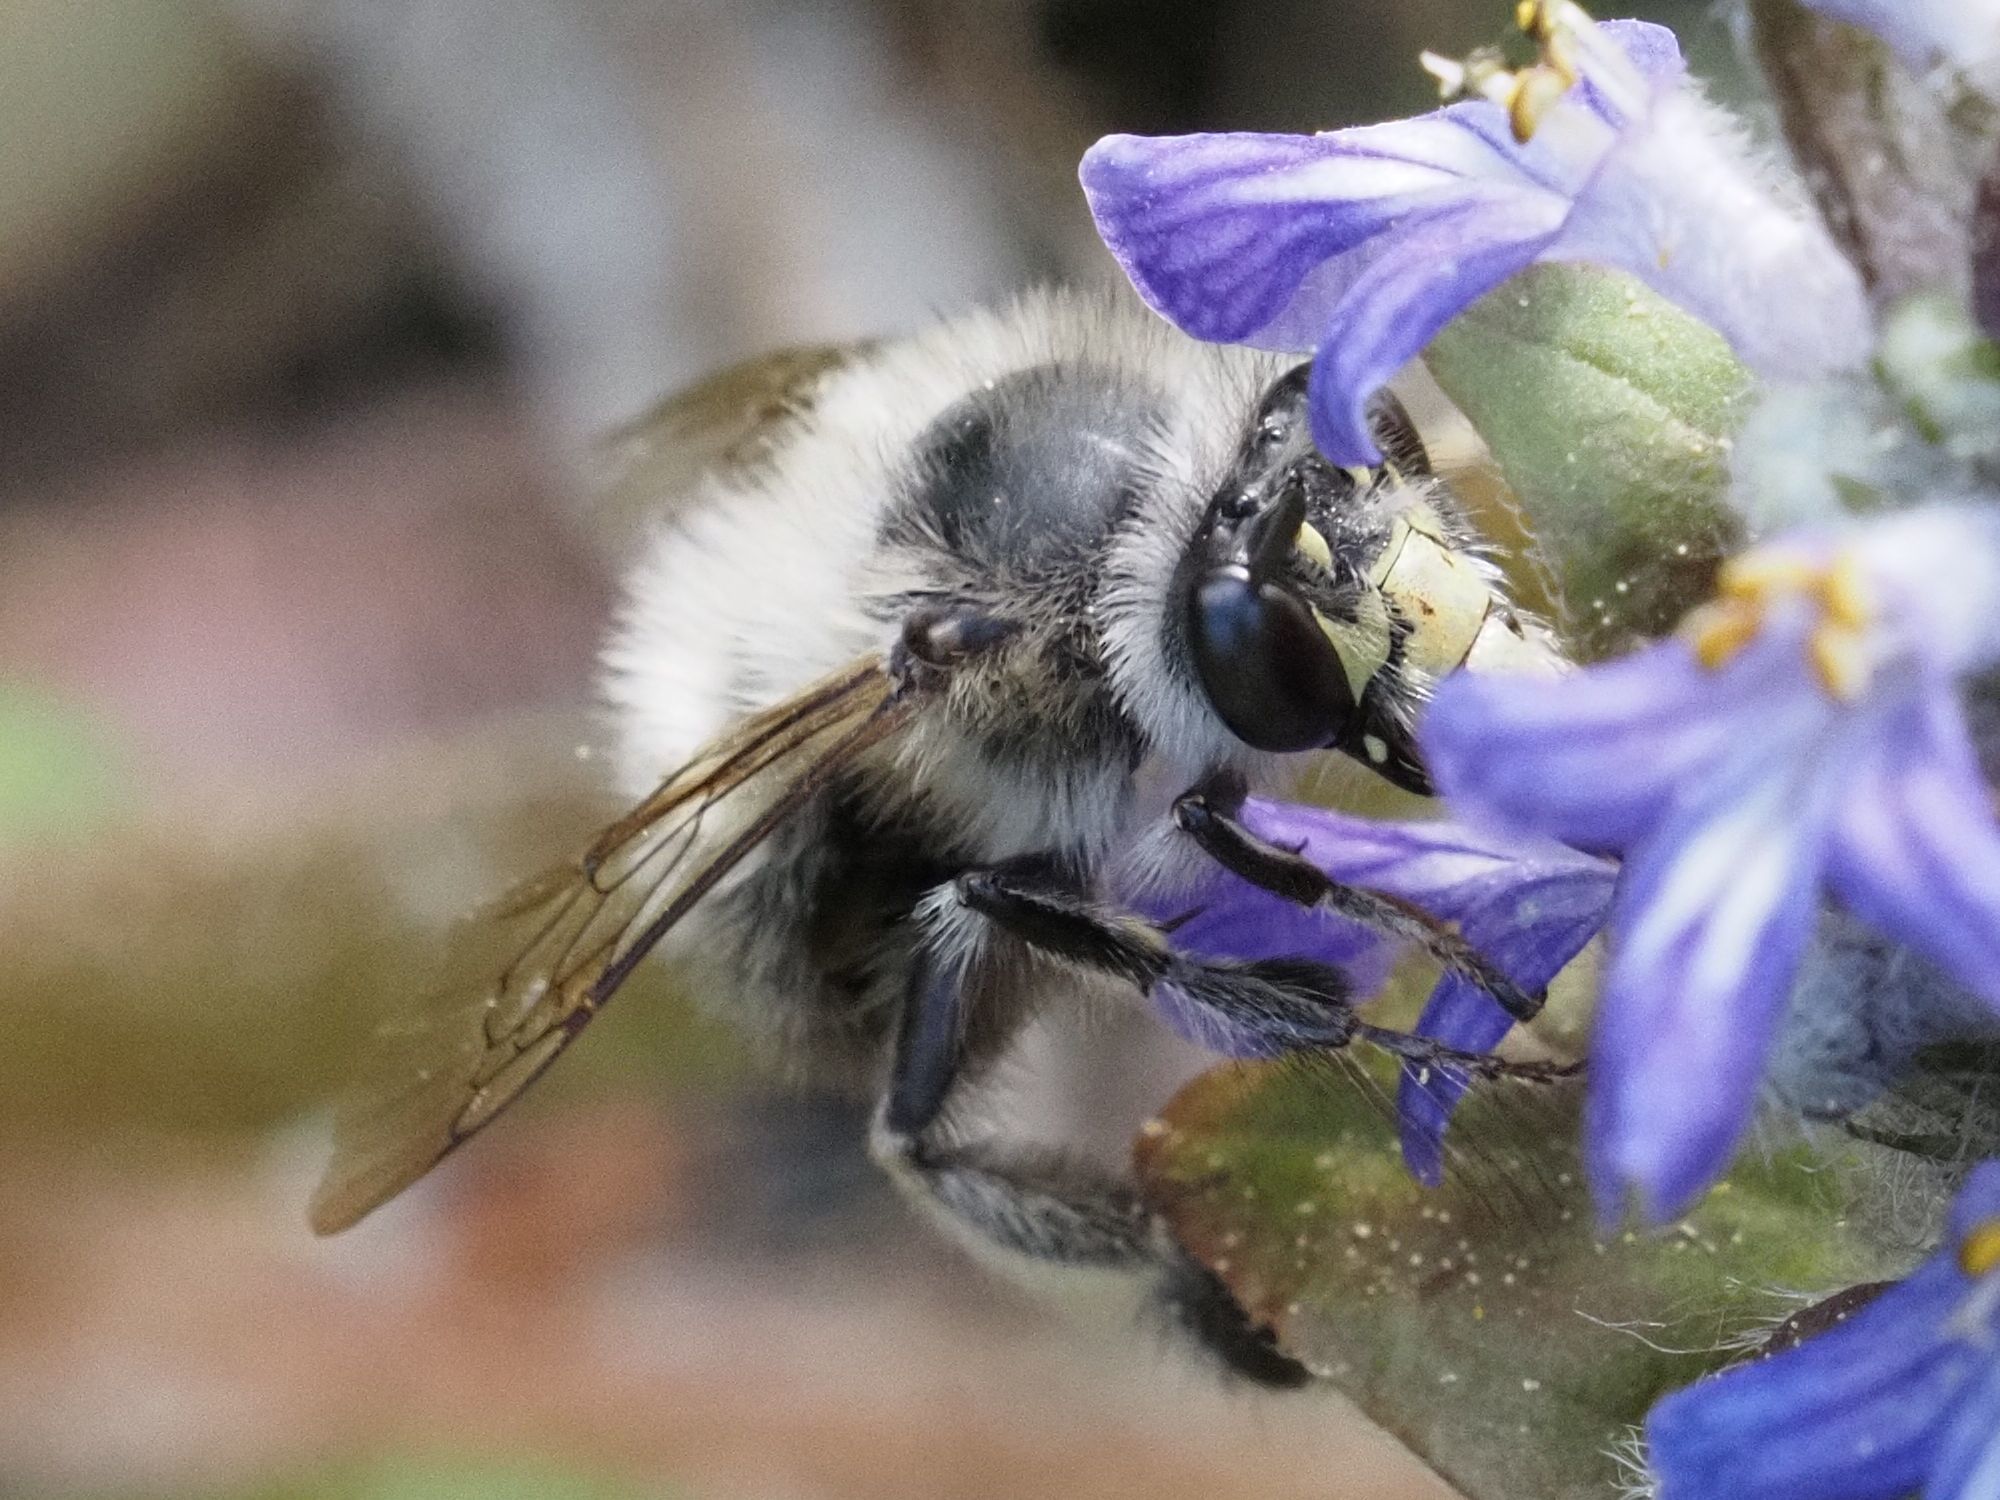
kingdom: Animalia
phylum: Arthropoda
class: Insecta
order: Hymenoptera
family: Apidae
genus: Anthophora
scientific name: Anthophora plumipes
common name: Hairy-footed flower bee
